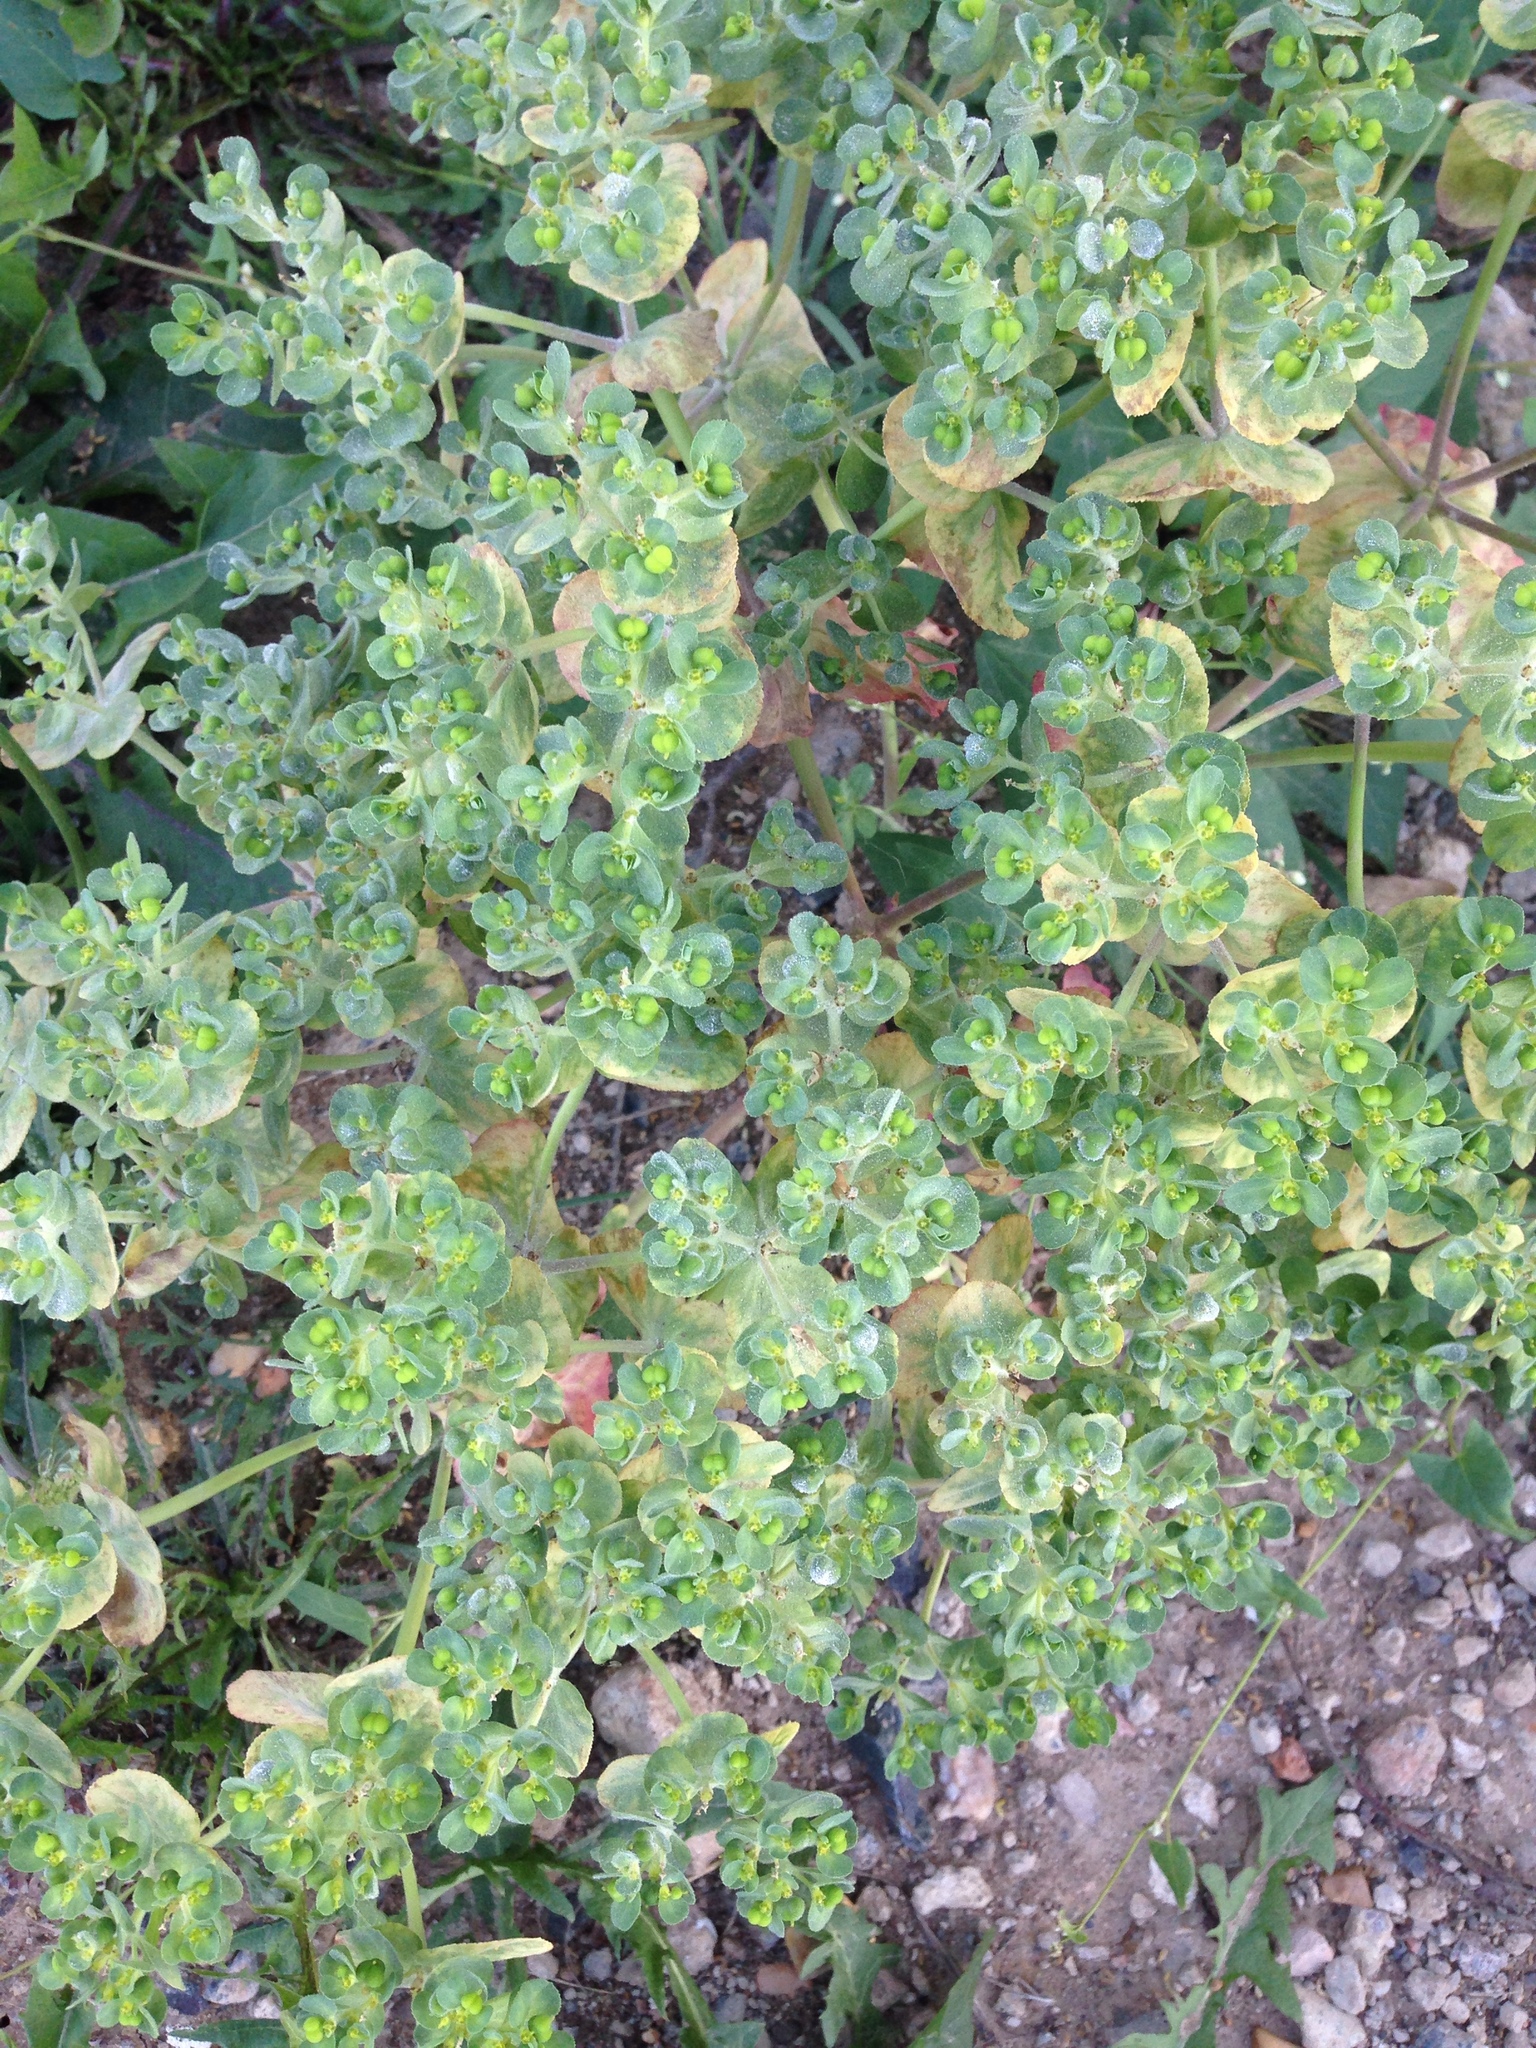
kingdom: Plantae
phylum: Tracheophyta
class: Magnoliopsida
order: Malpighiales
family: Euphorbiaceae
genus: Euphorbia
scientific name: Euphorbia helioscopia
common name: Sun spurge
